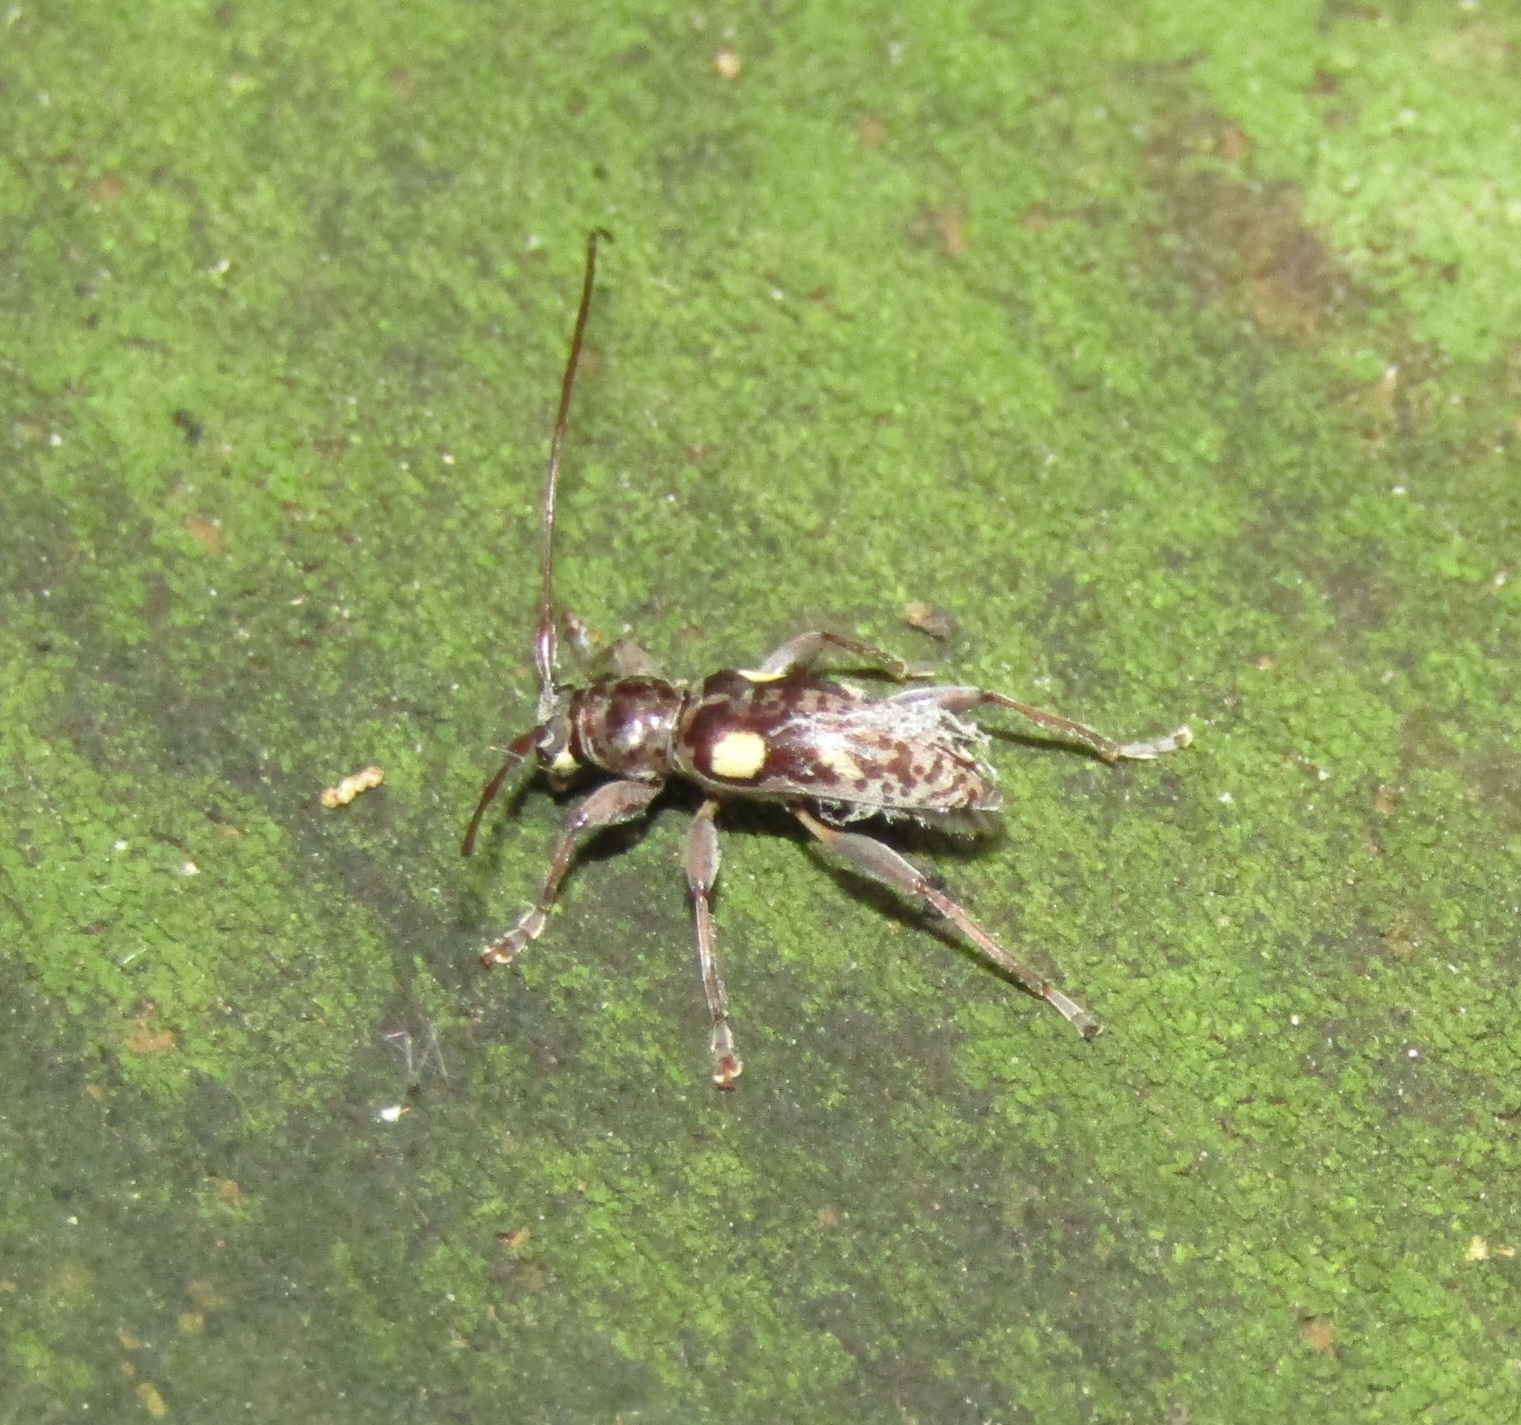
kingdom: Animalia
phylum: Arthropoda
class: Insecta
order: Coleoptera
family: Cerambycidae
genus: Stenellipsis
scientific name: Stenellipsis bimaculata
